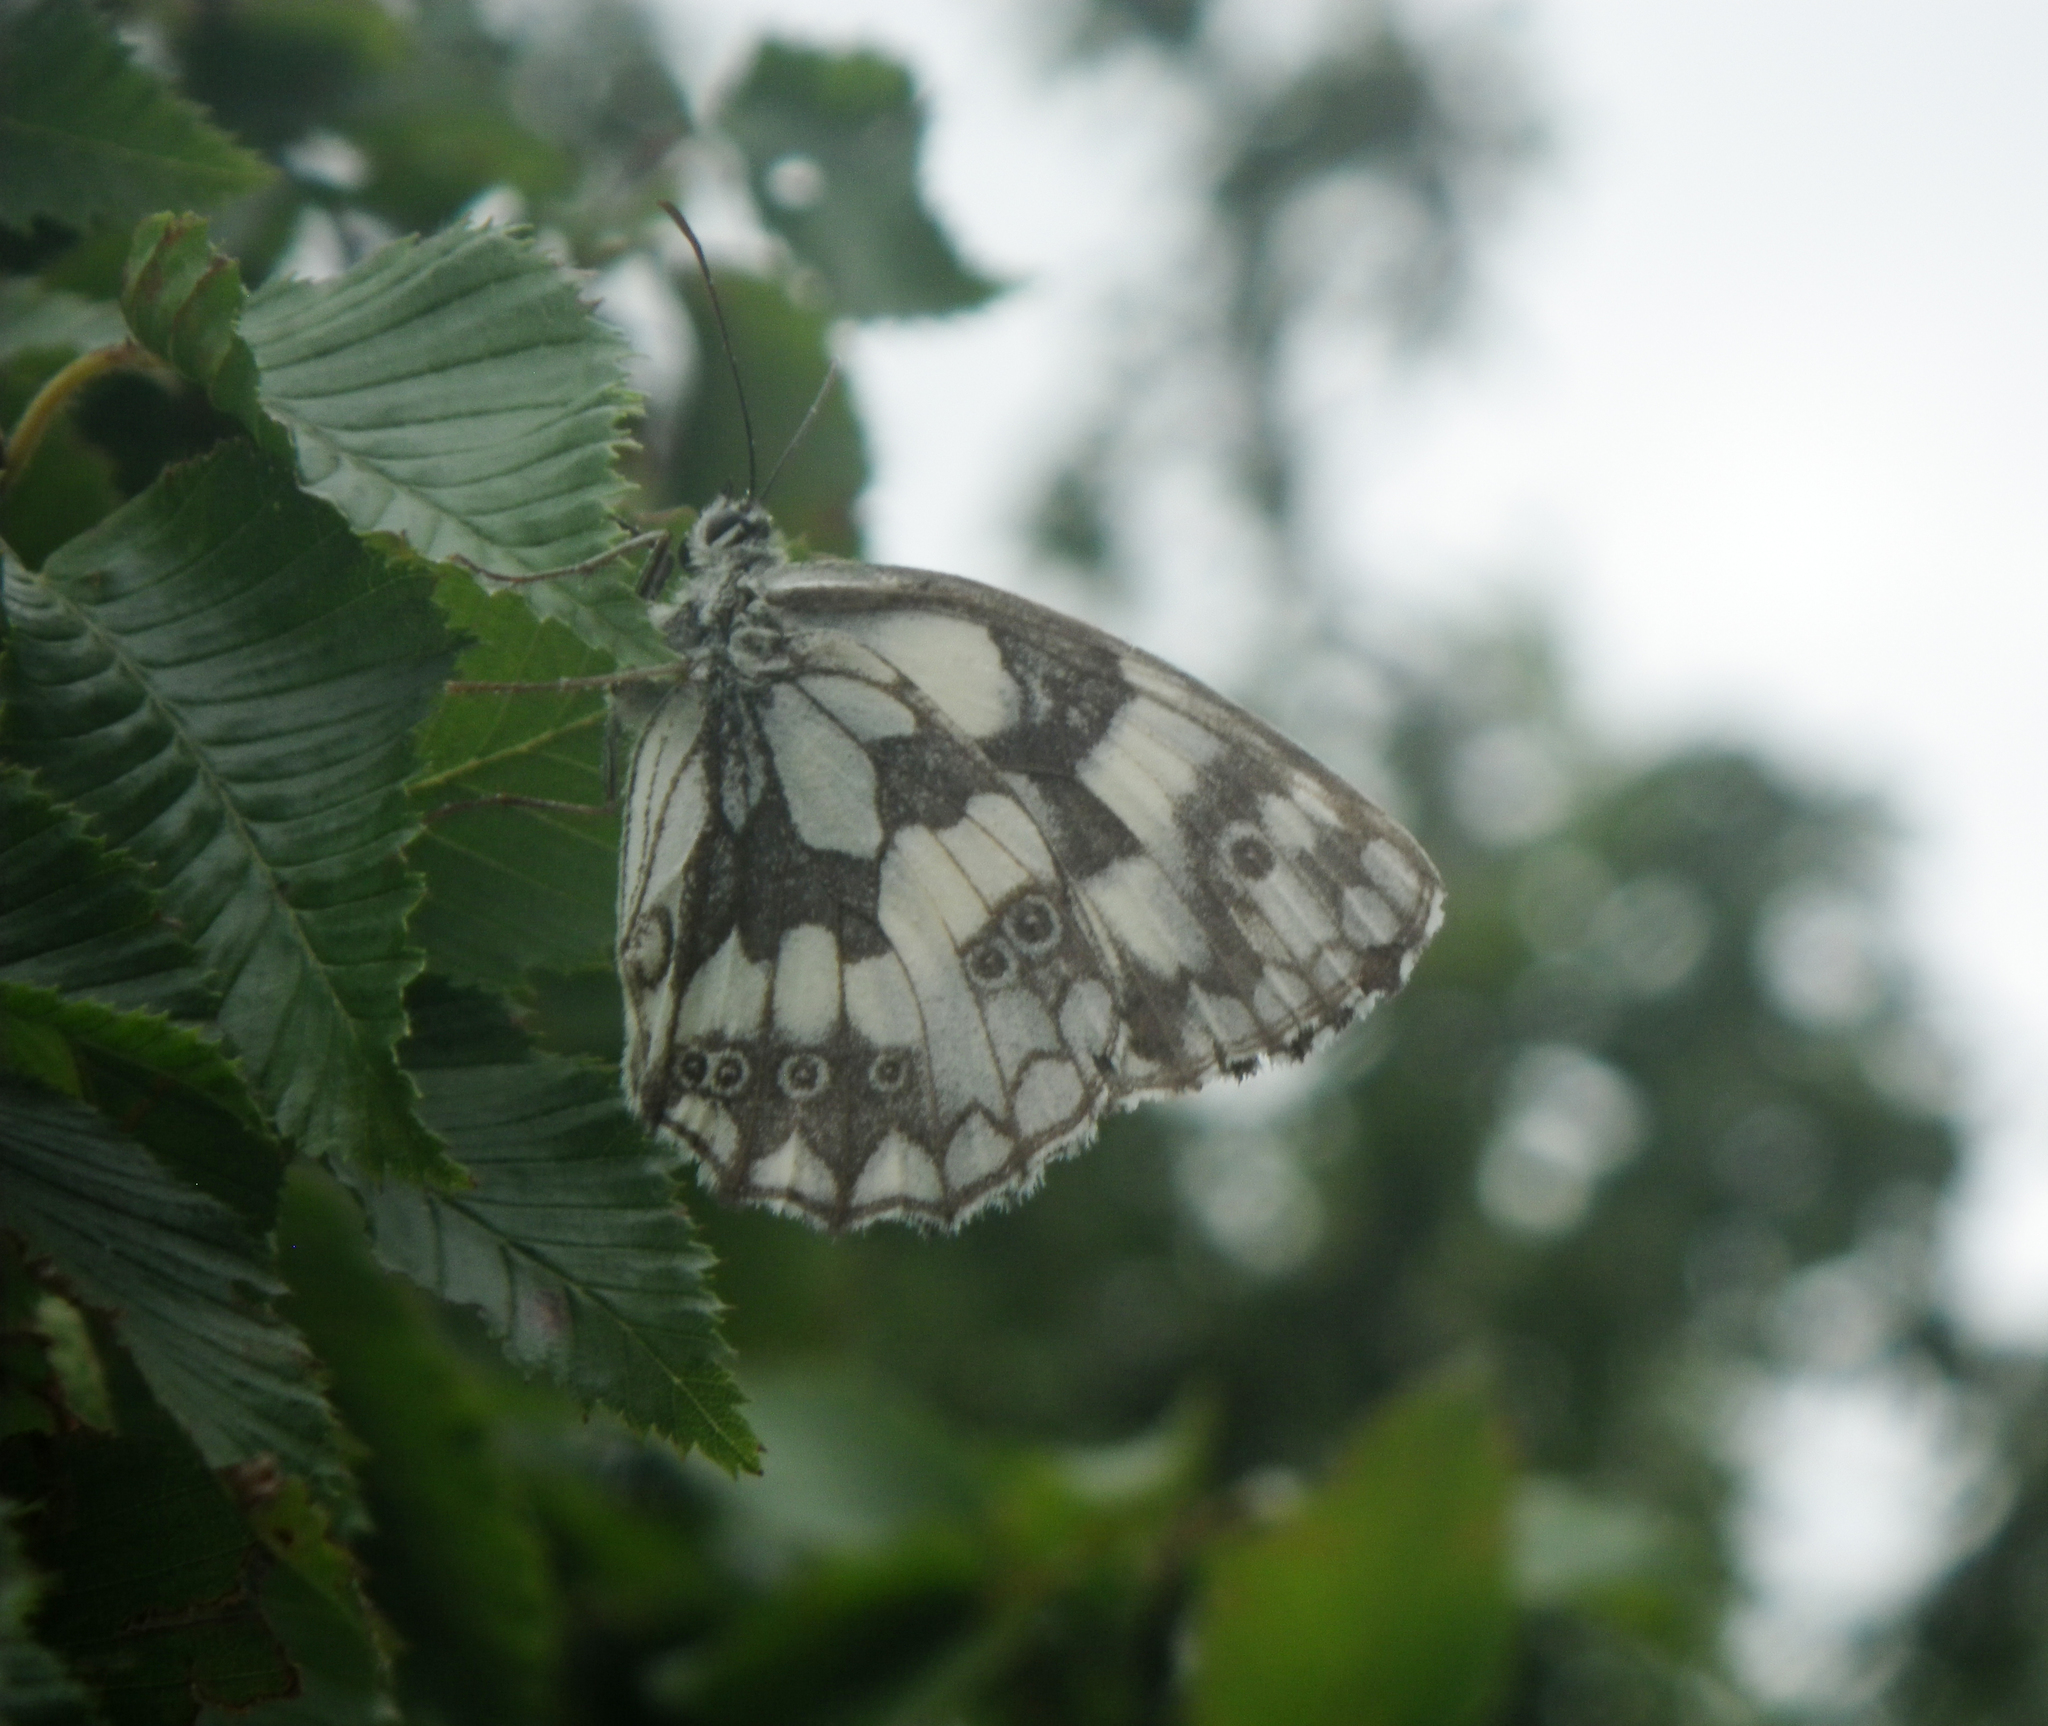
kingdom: Animalia
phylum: Arthropoda
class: Insecta
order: Lepidoptera
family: Nymphalidae
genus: Melanargia
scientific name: Melanargia galathea
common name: Marbled white
